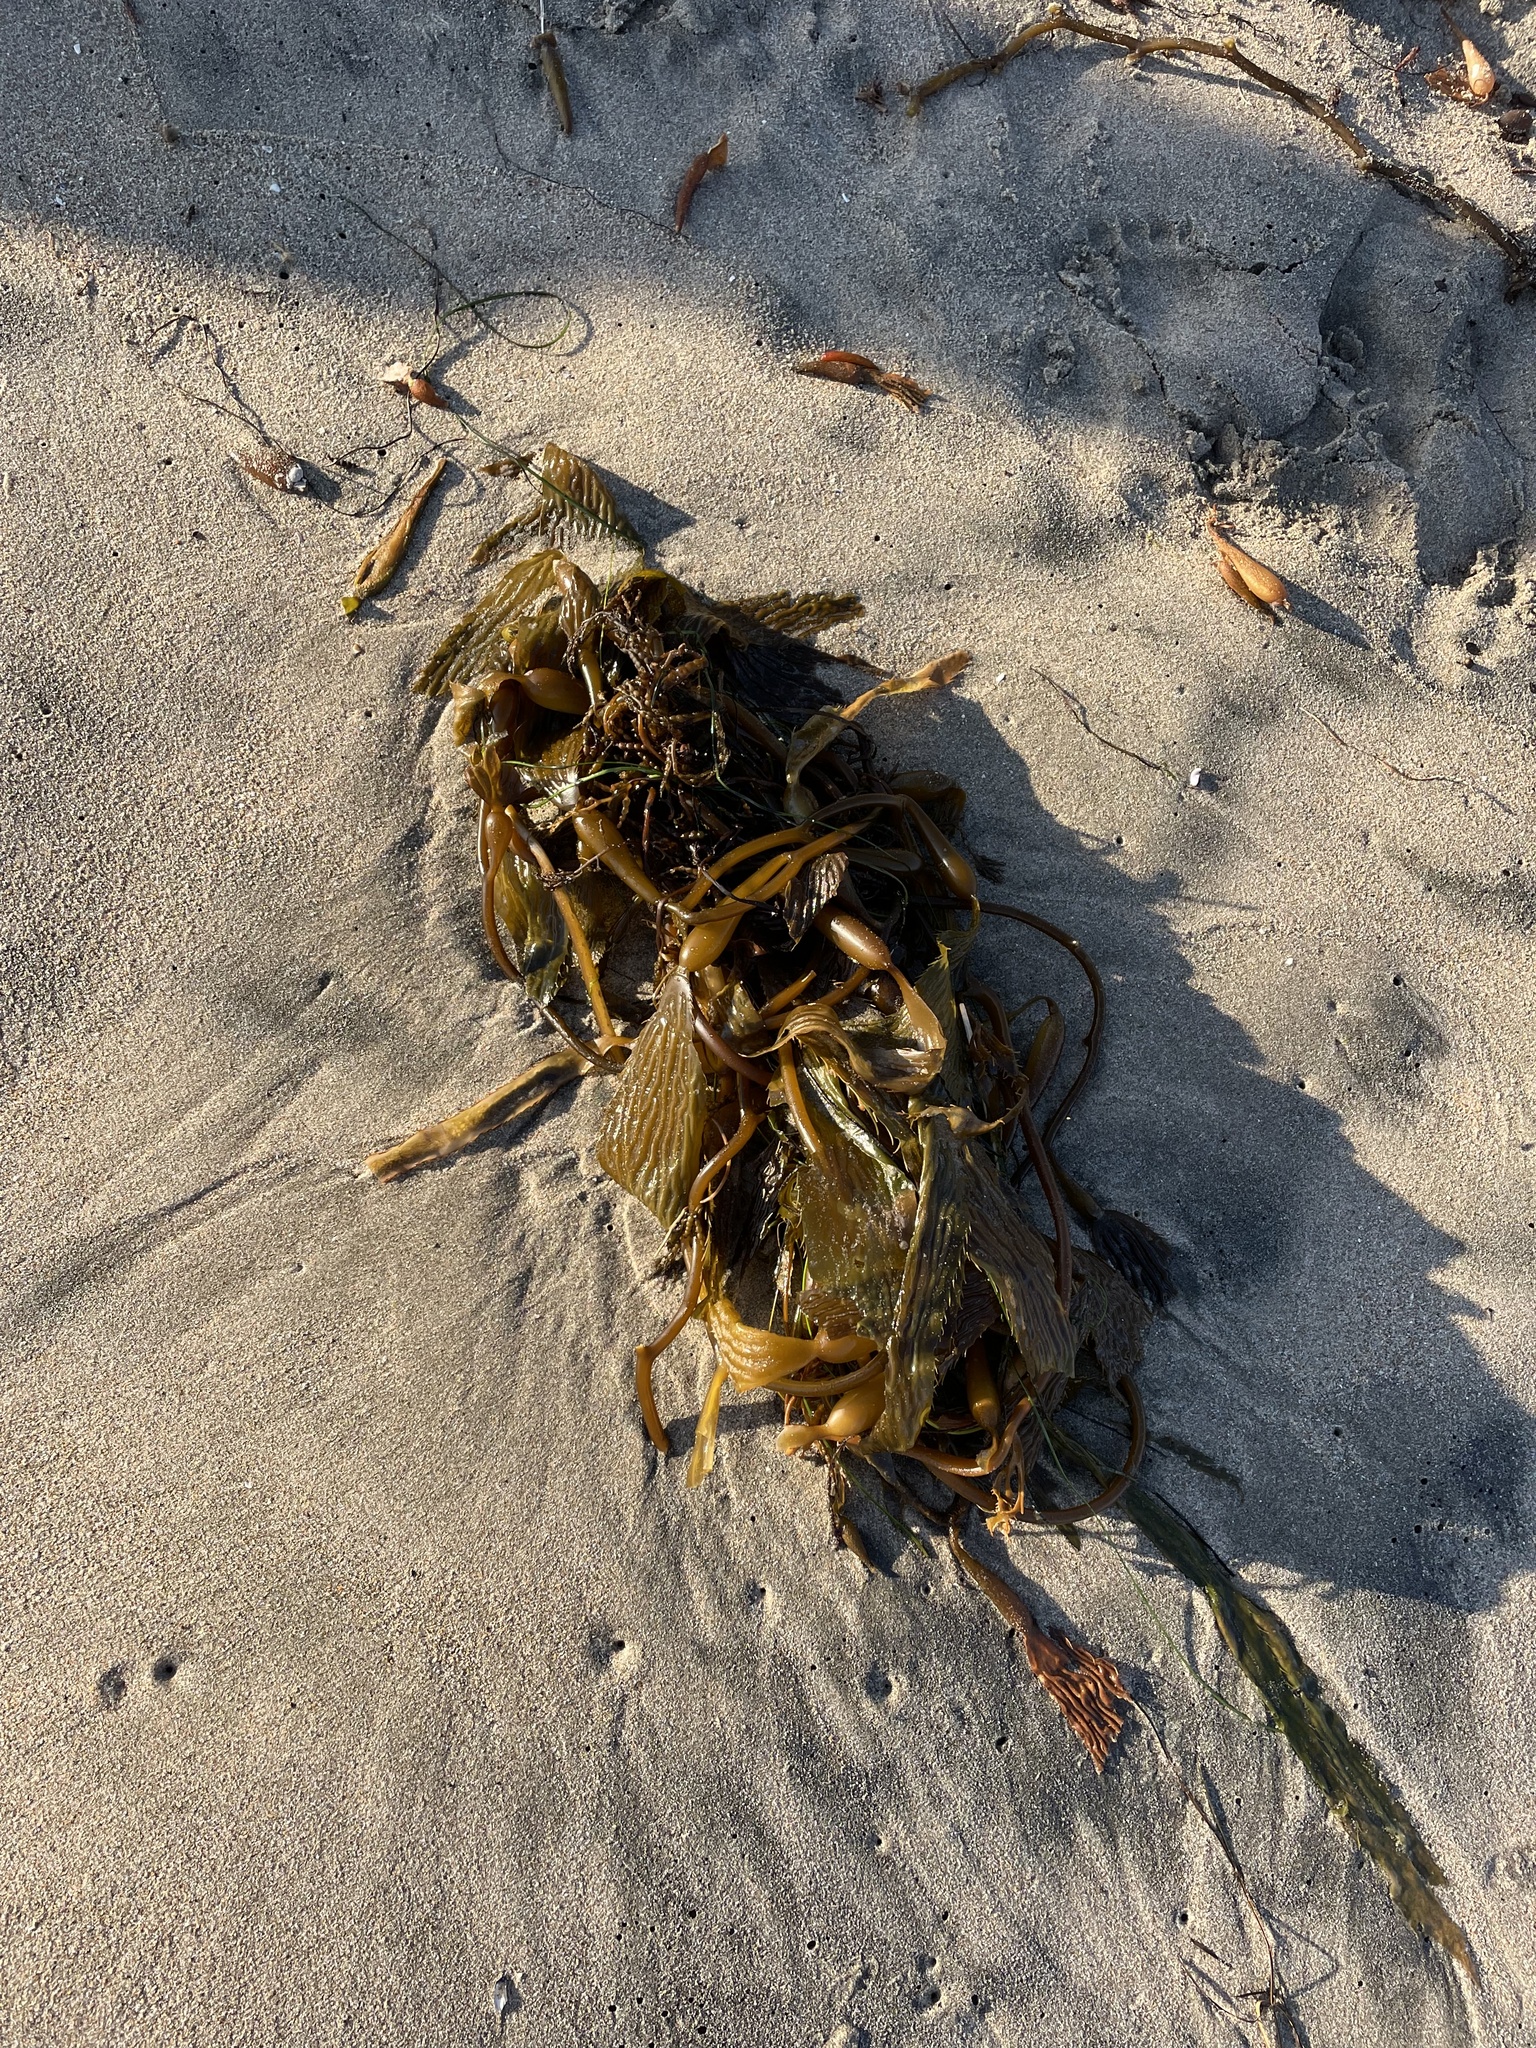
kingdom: Chromista
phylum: Ochrophyta
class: Phaeophyceae
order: Laminariales
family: Laminariaceae
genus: Macrocystis
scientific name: Macrocystis pyrifera
